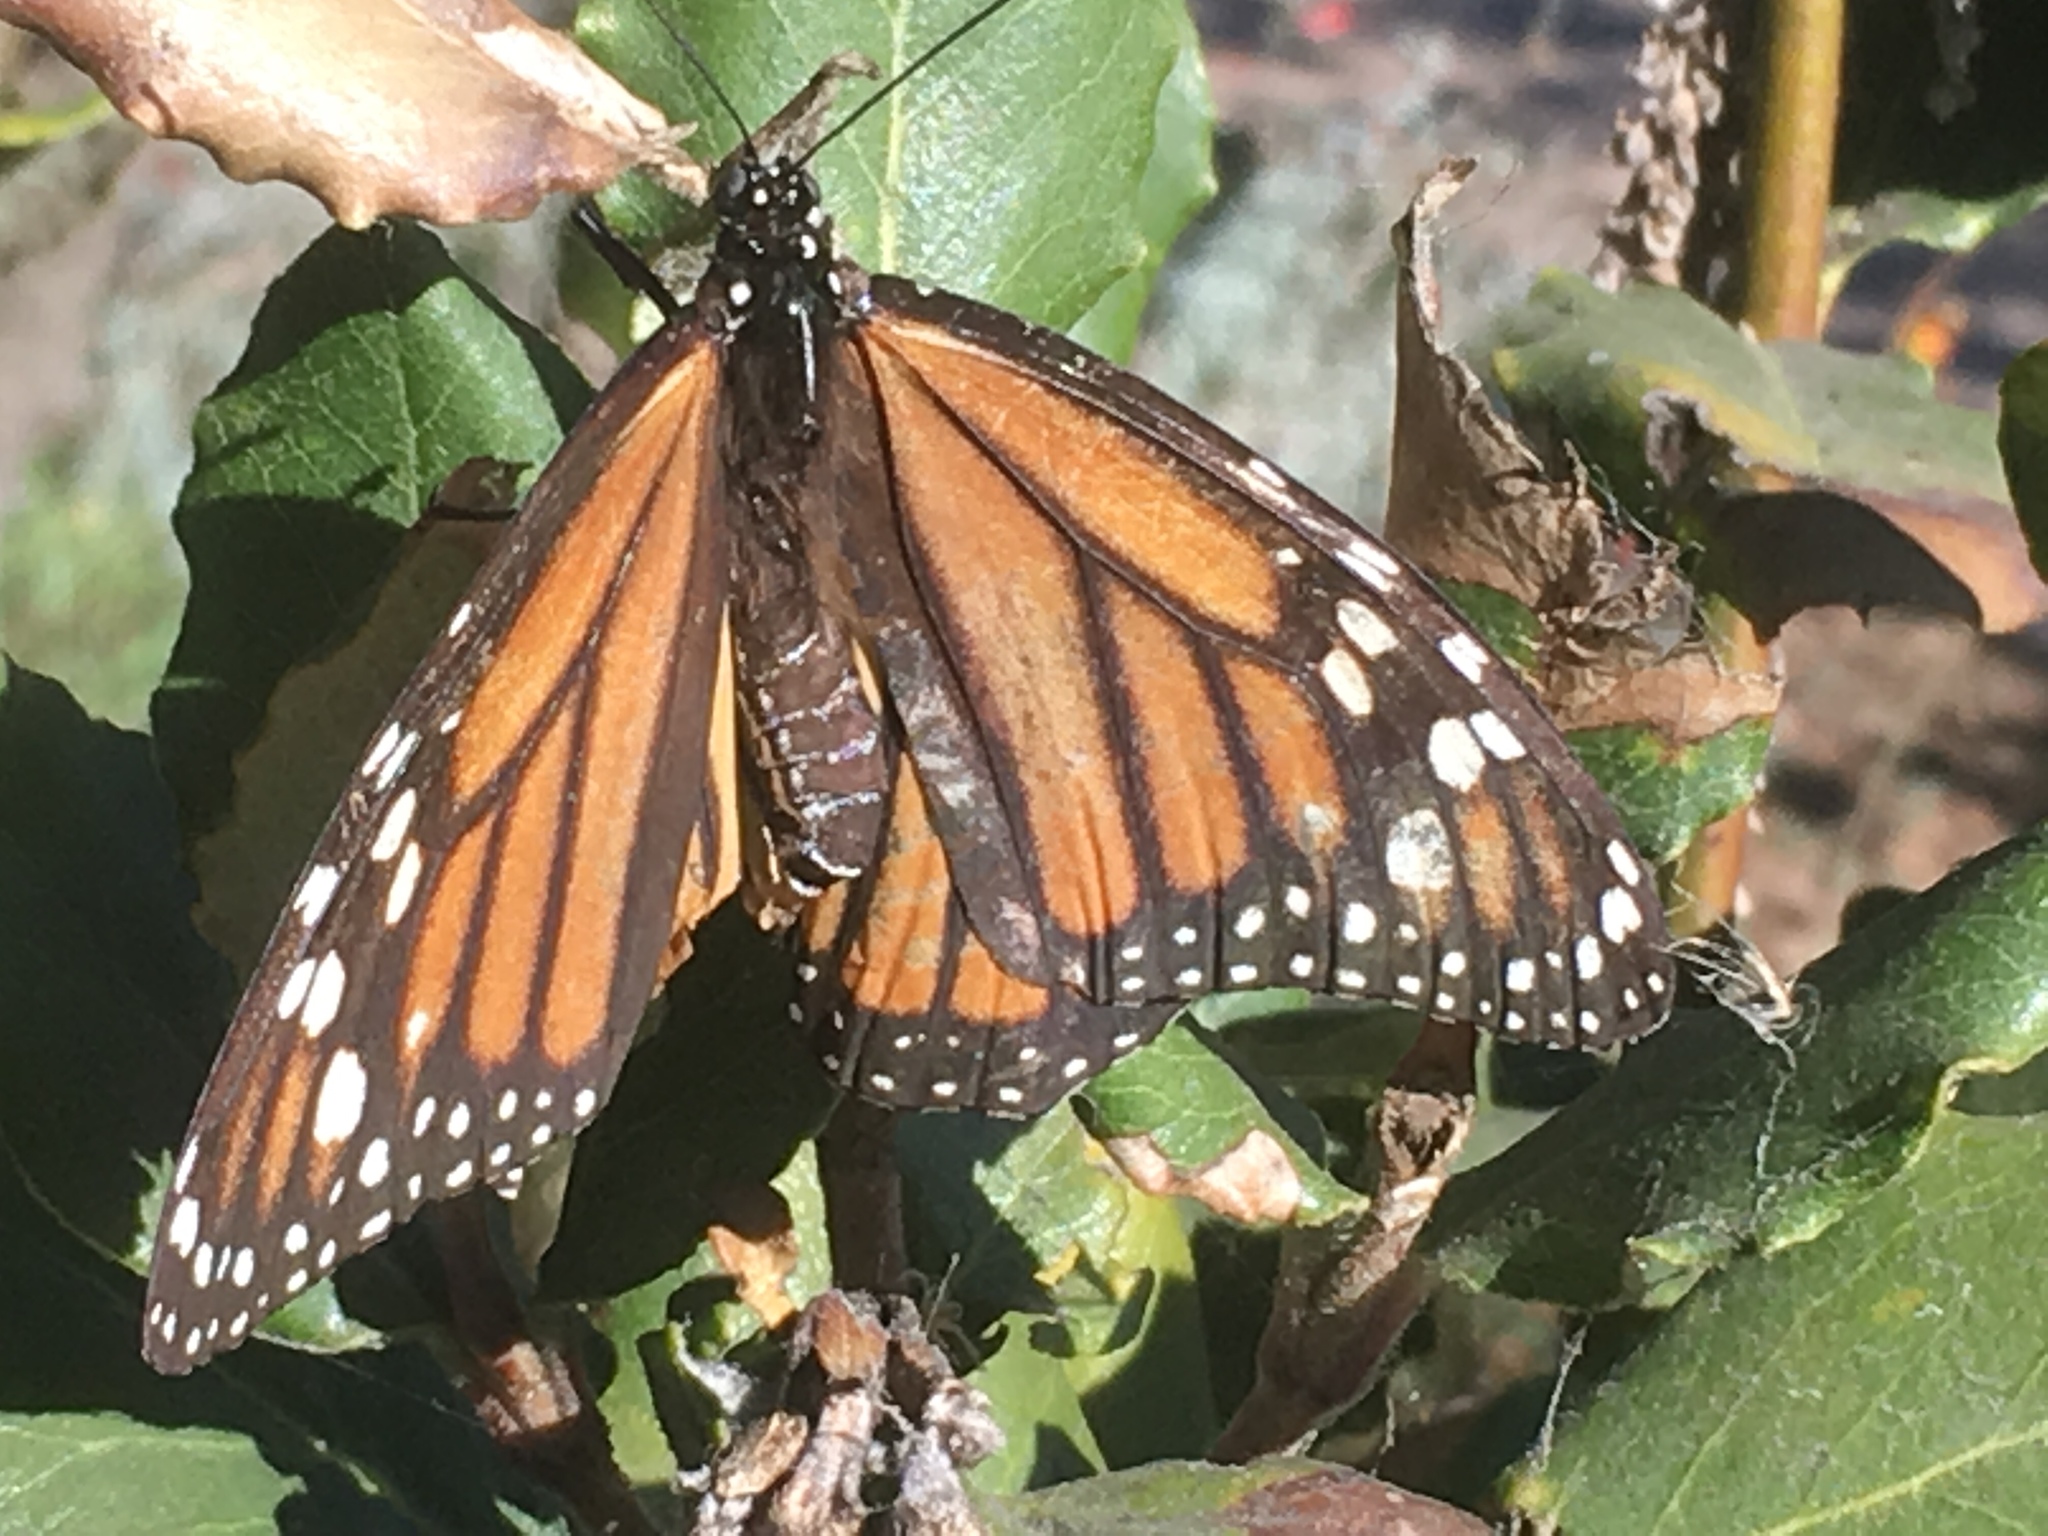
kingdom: Animalia
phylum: Arthropoda
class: Insecta
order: Lepidoptera
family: Nymphalidae
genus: Danaus
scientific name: Danaus plexippus
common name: Monarch
